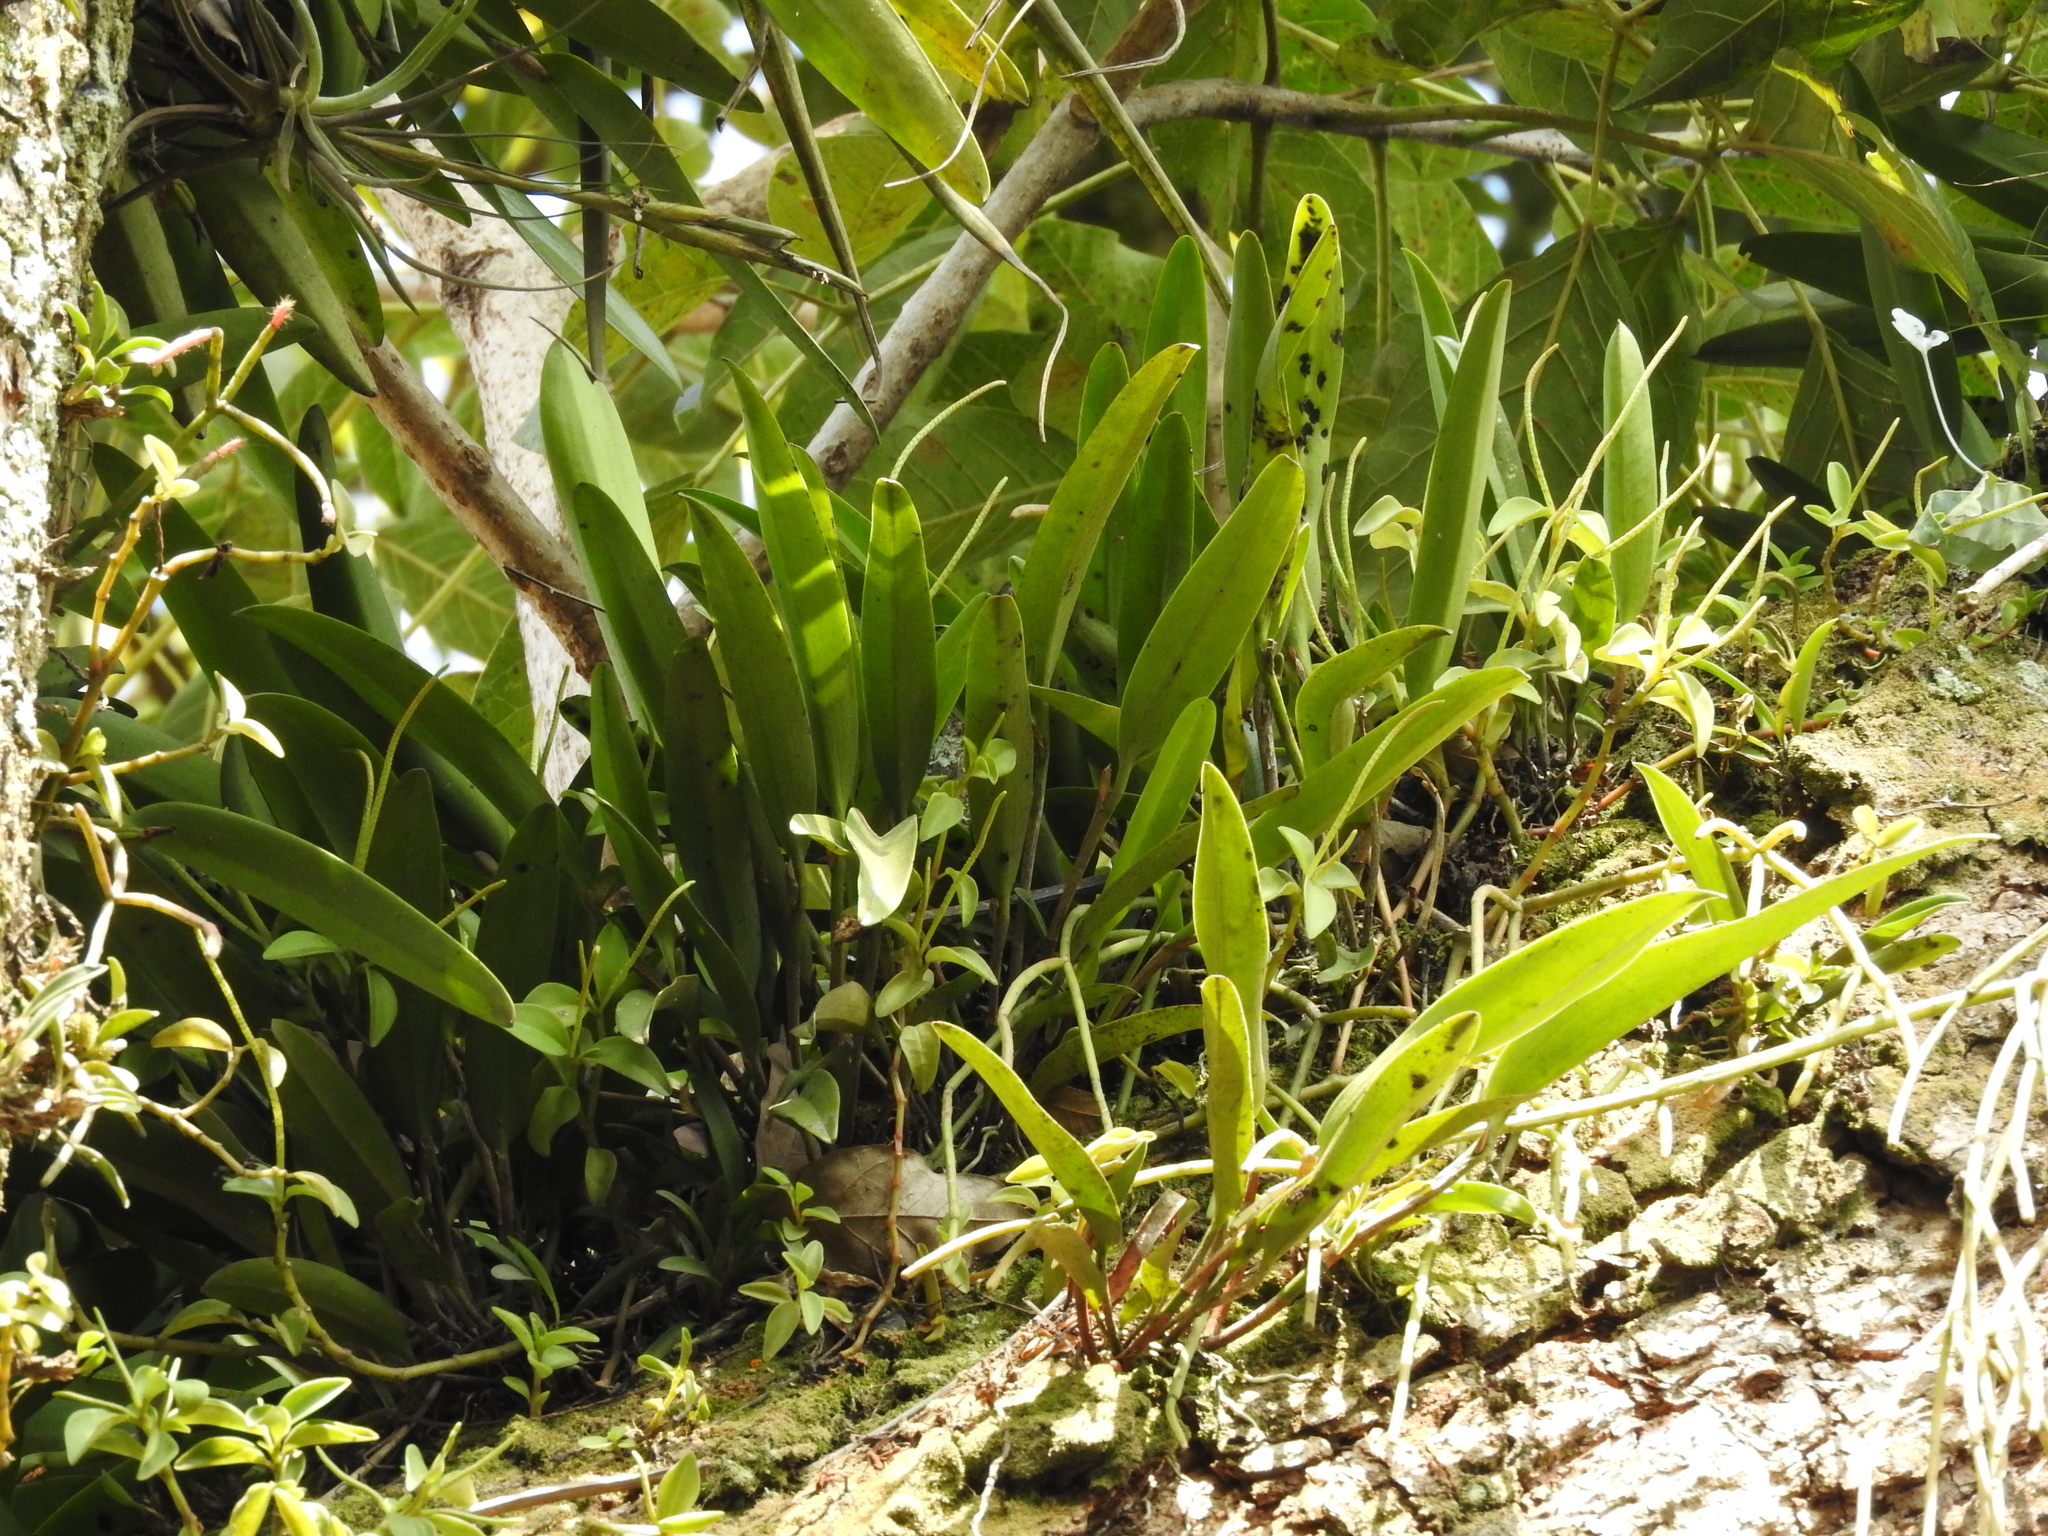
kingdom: Plantae
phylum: Tracheophyta
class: Liliopsida
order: Asparagales
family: Orchidaceae
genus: Restrepiella
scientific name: Restrepiella ophiocephala
